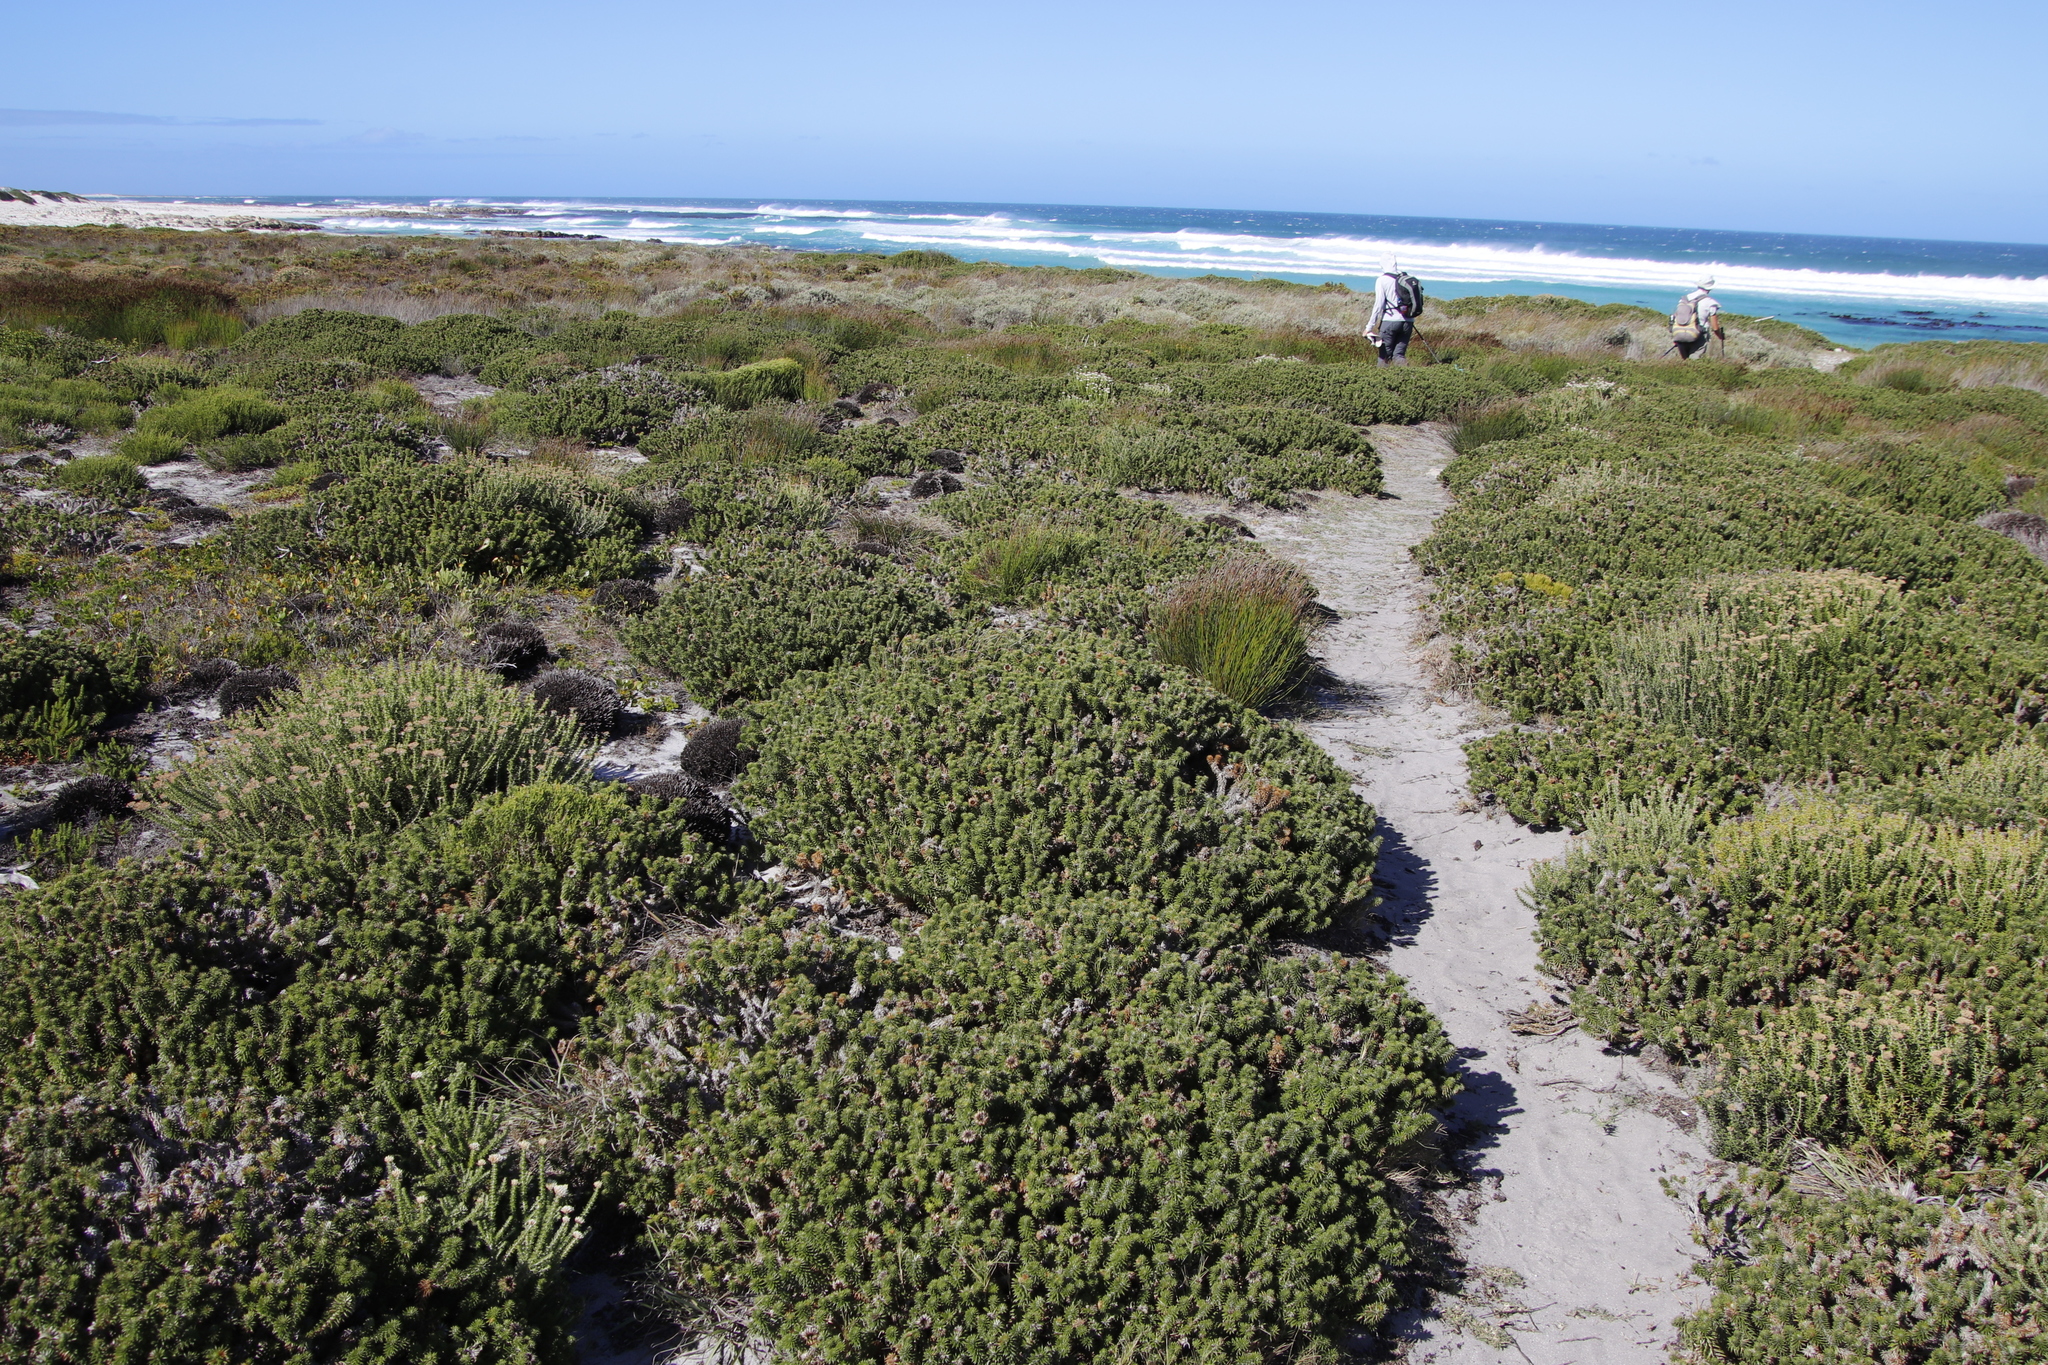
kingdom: Plantae
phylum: Tracheophyta
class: Magnoliopsida
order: Asterales
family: Asteraceae
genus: Cullumia
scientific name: Cullumia squarrosa
